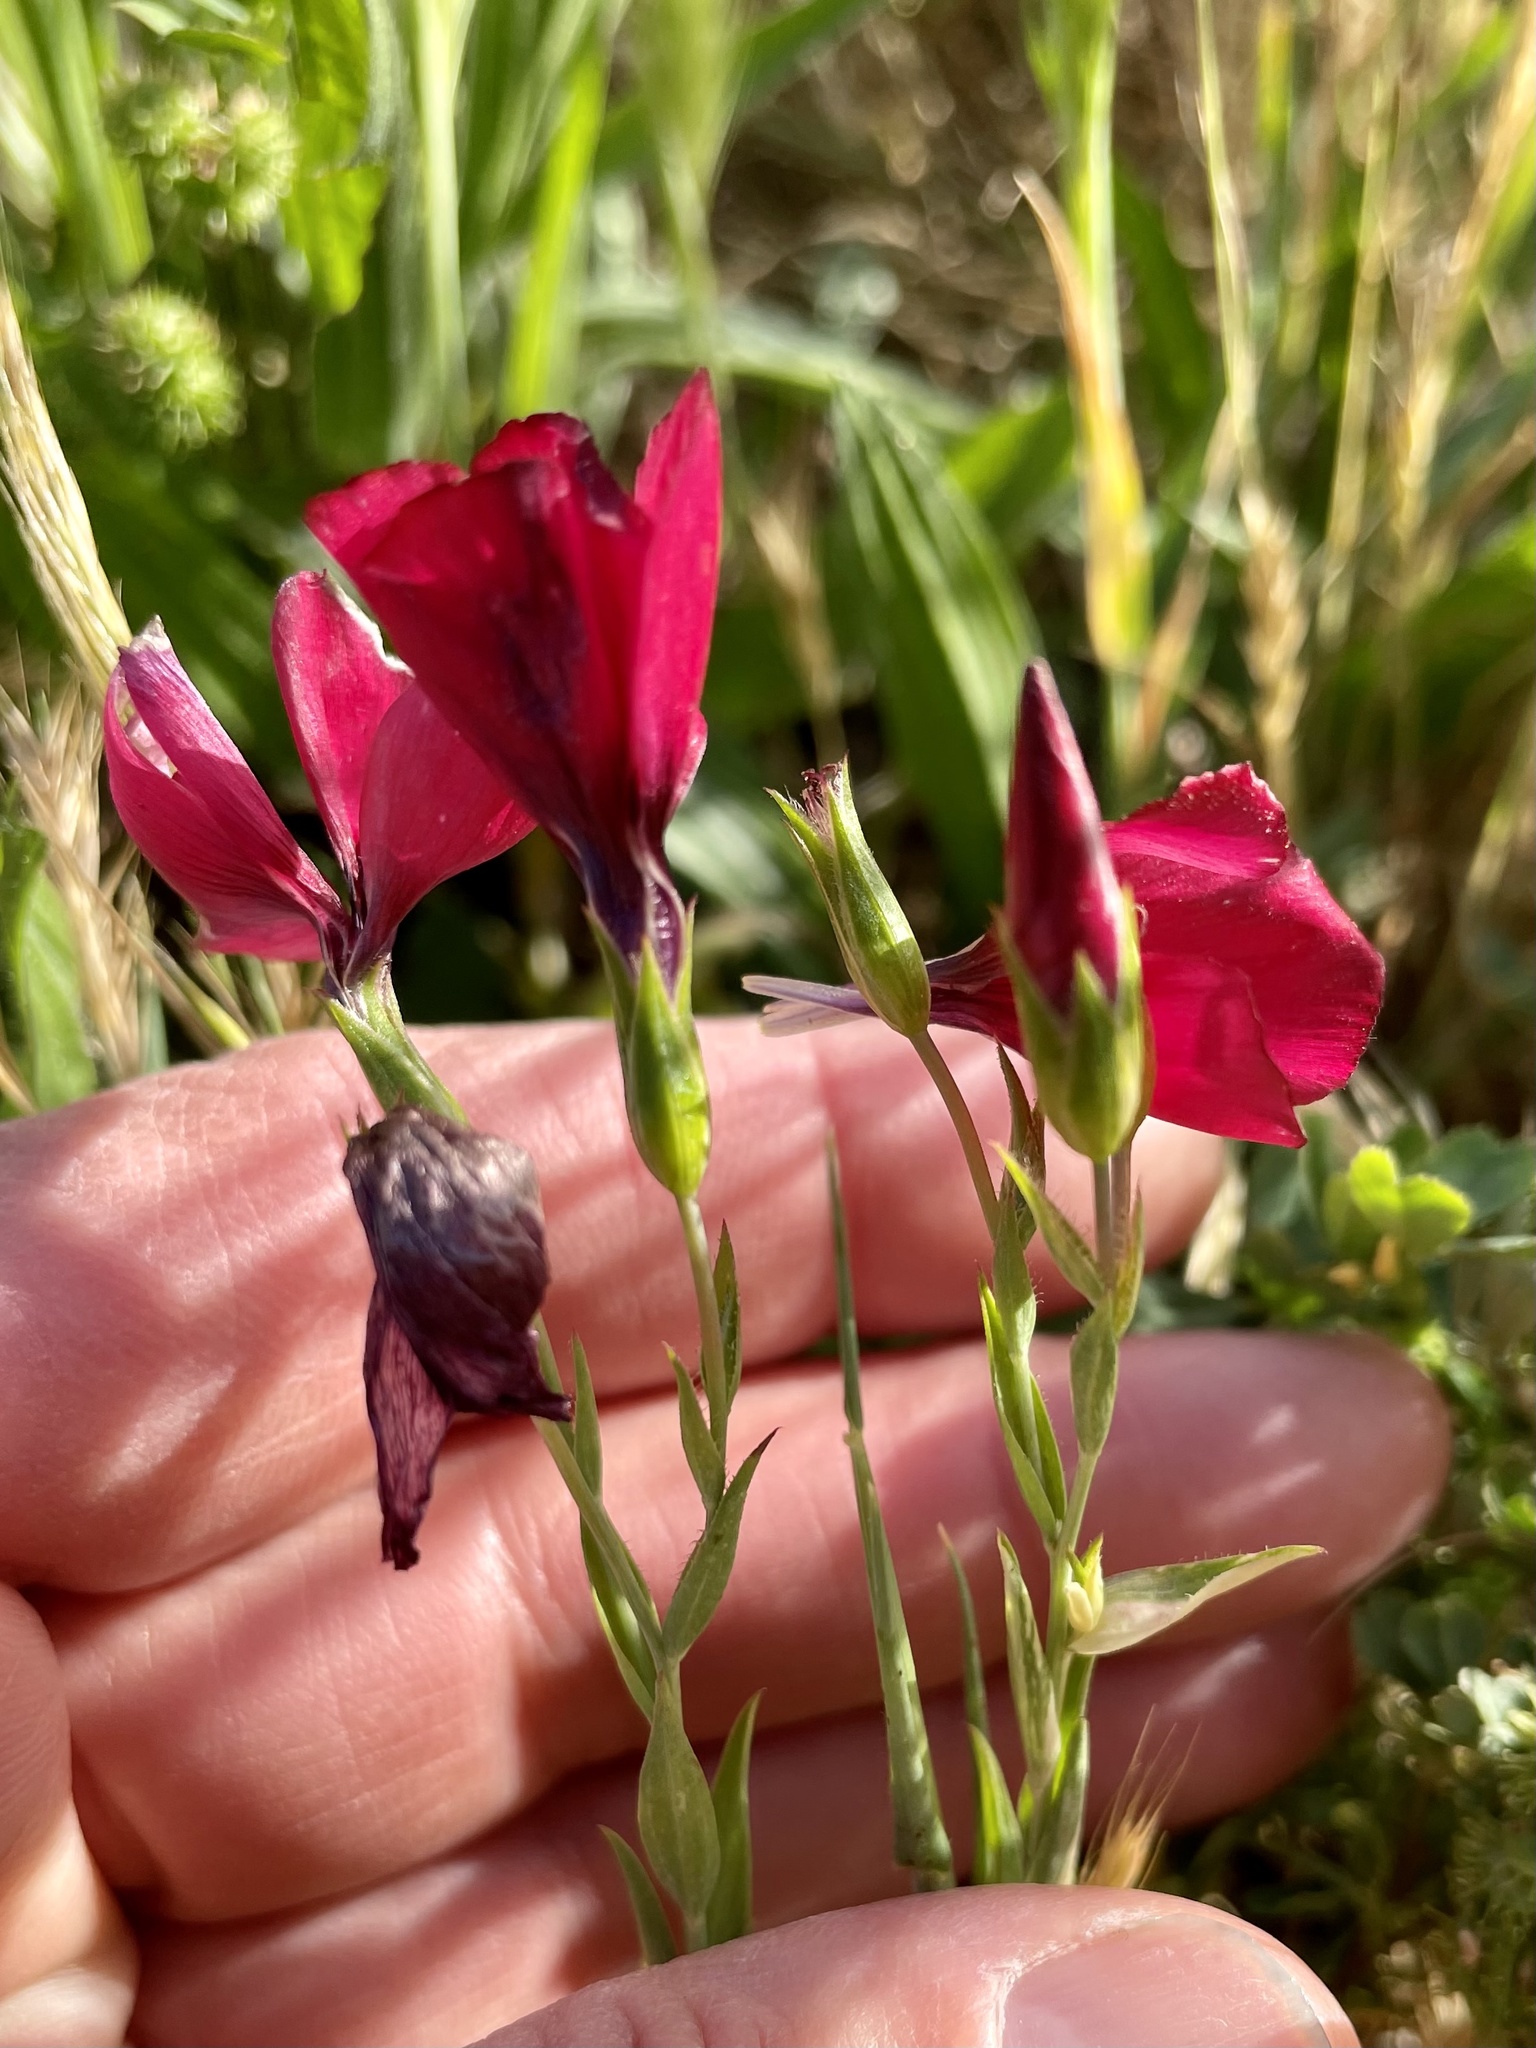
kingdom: Plantae
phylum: Tracheophyta
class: Magnoliopsida
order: Malpighiales
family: Linaceae
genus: Linum
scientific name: Linum grandiflorum
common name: Crimson flax
